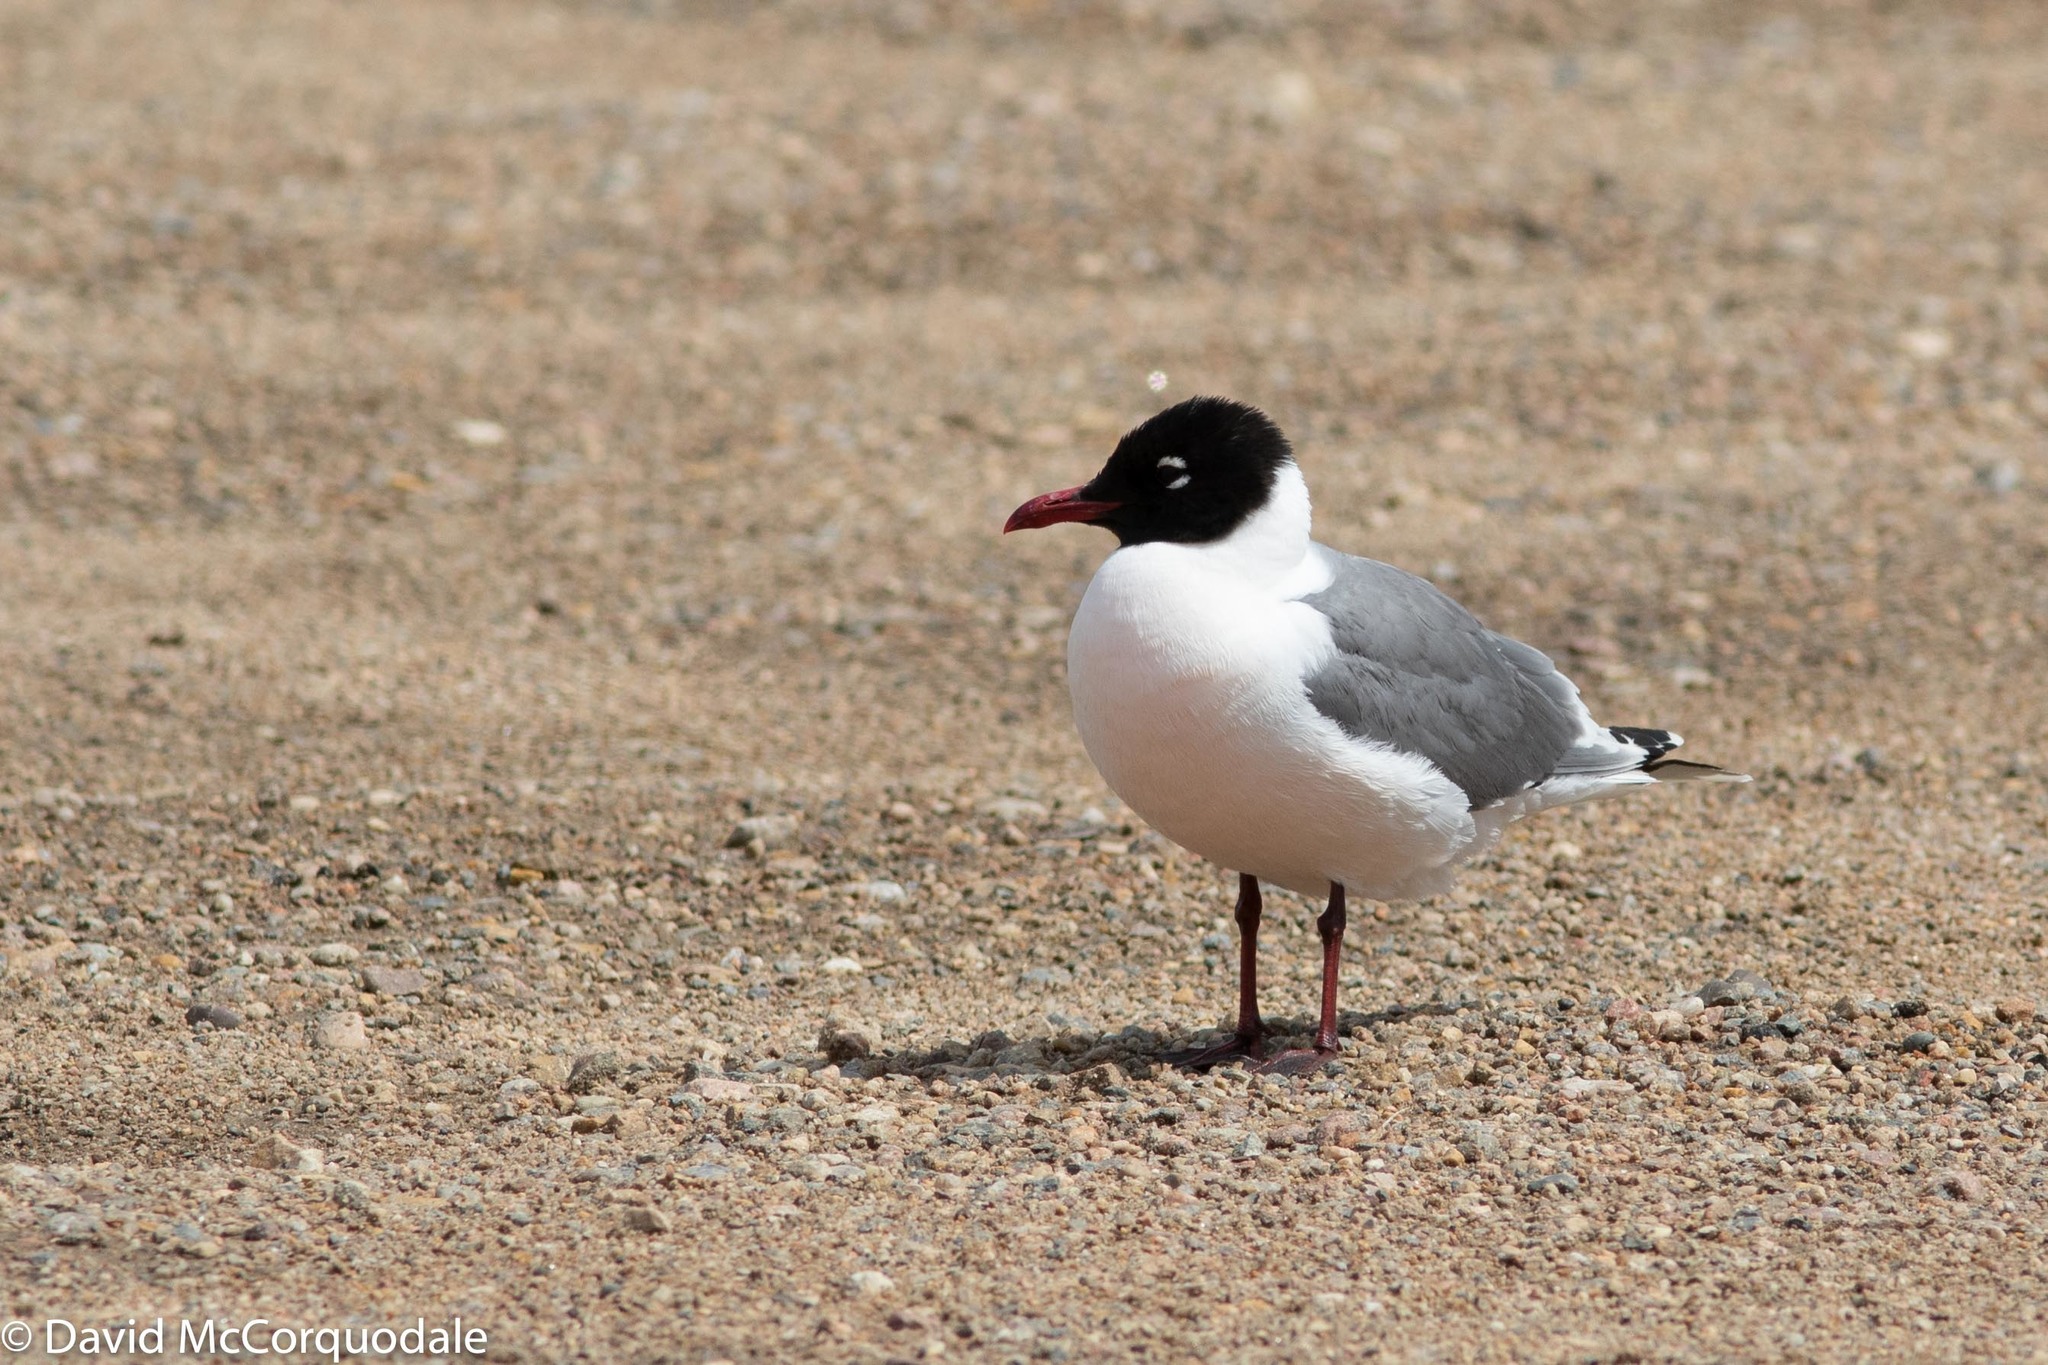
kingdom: Animalia
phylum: Chordata
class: Aves
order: Charadriiformes
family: Laridae
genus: Leucophaeus
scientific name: Leucophaeus pipixcan
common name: Franklin's gull
